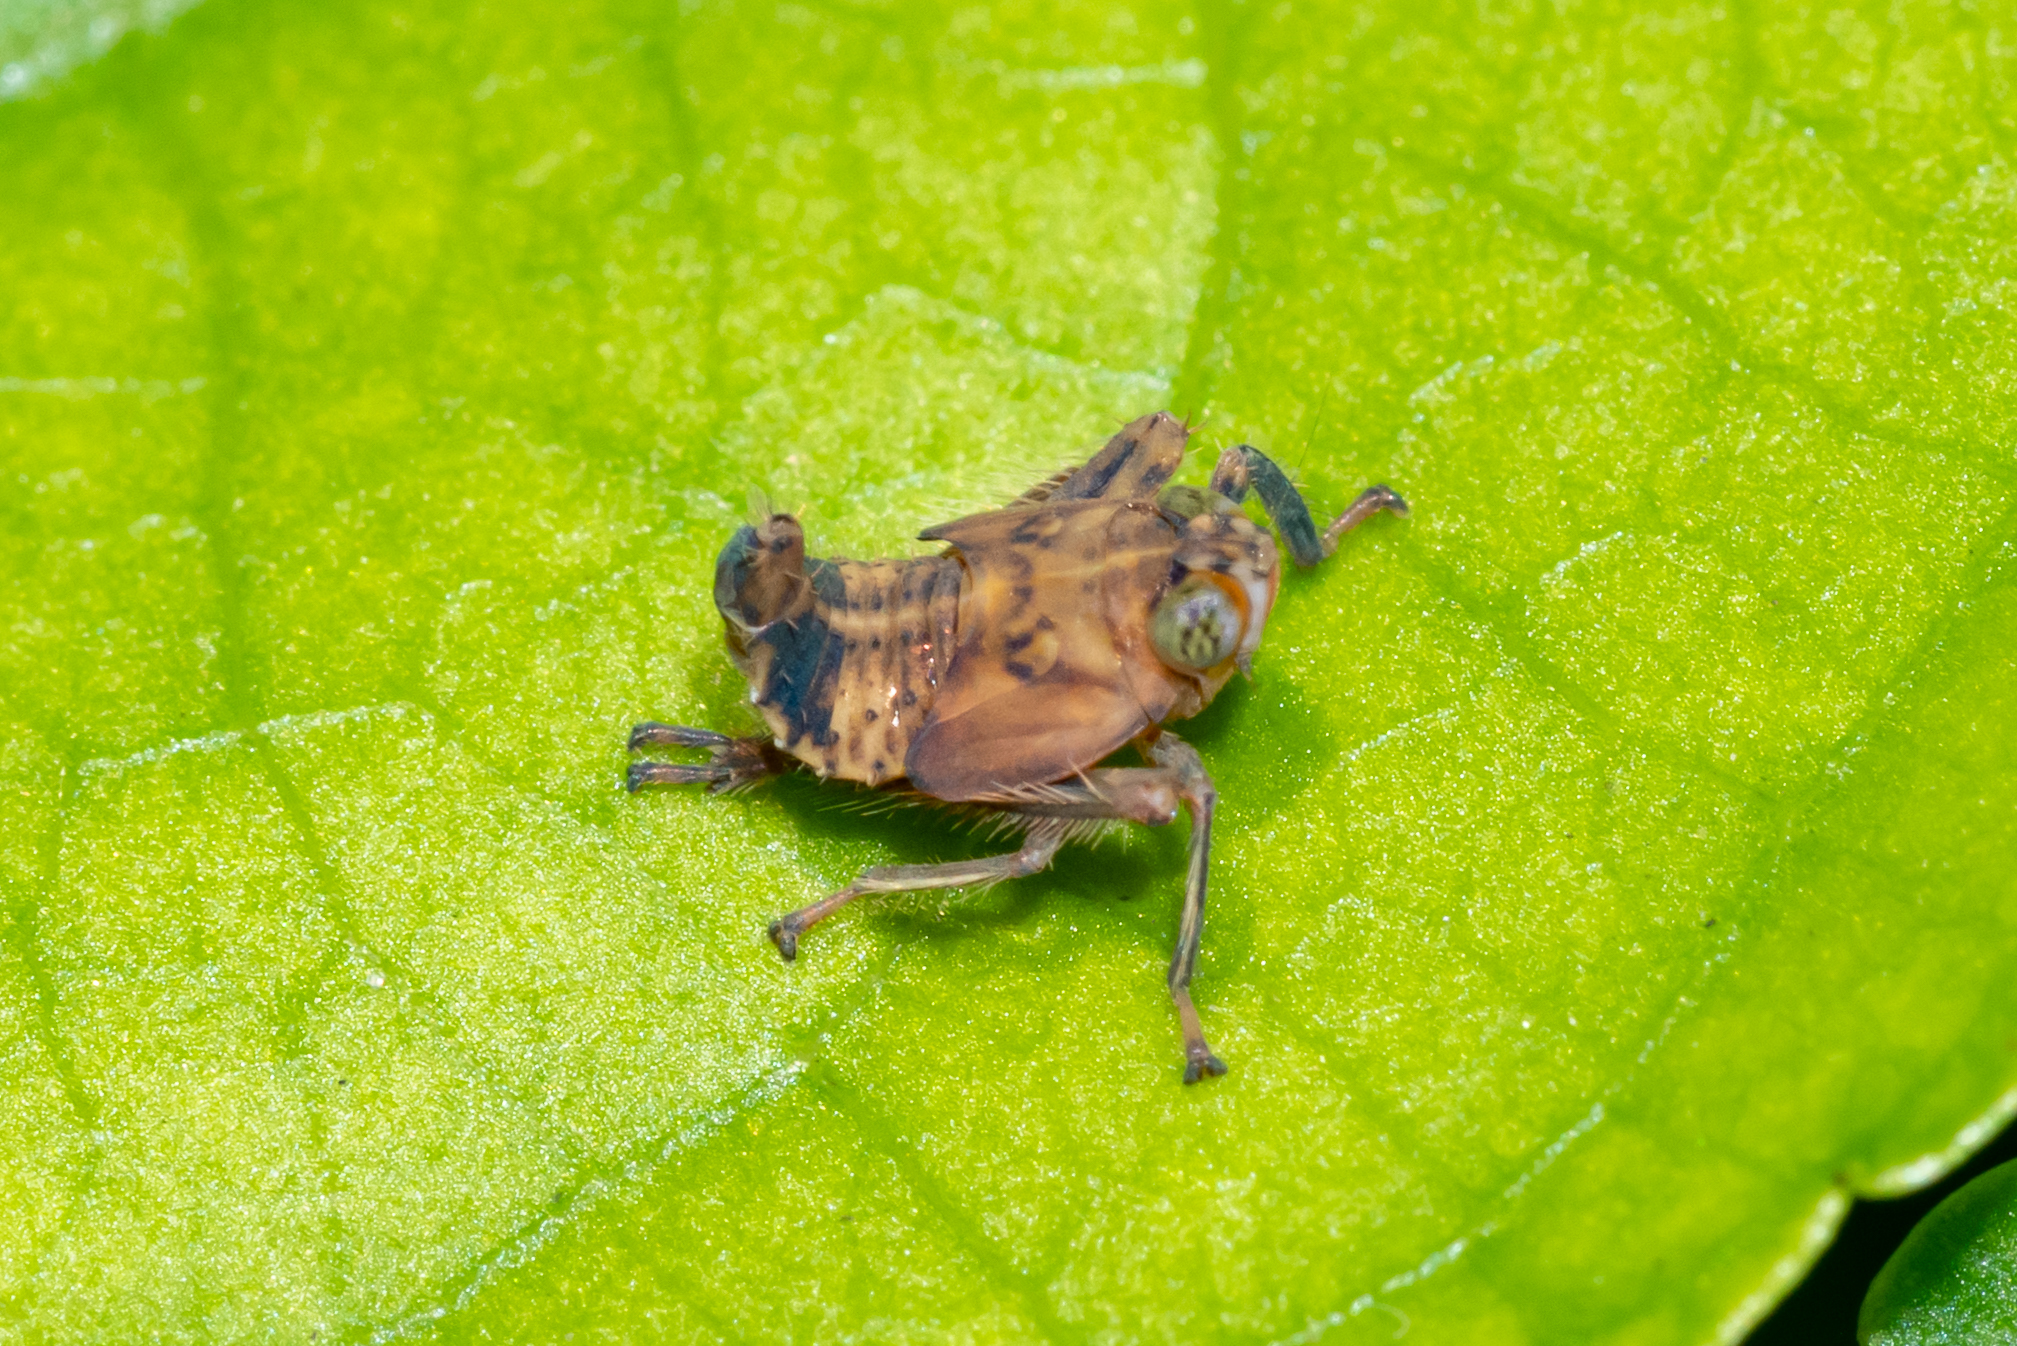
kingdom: Animalia
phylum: Arthropoda
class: Insecta
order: Hemiptera
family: Cicadellidae
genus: Jikradia
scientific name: Jikradia olitoria
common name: Coppery leafhopper
